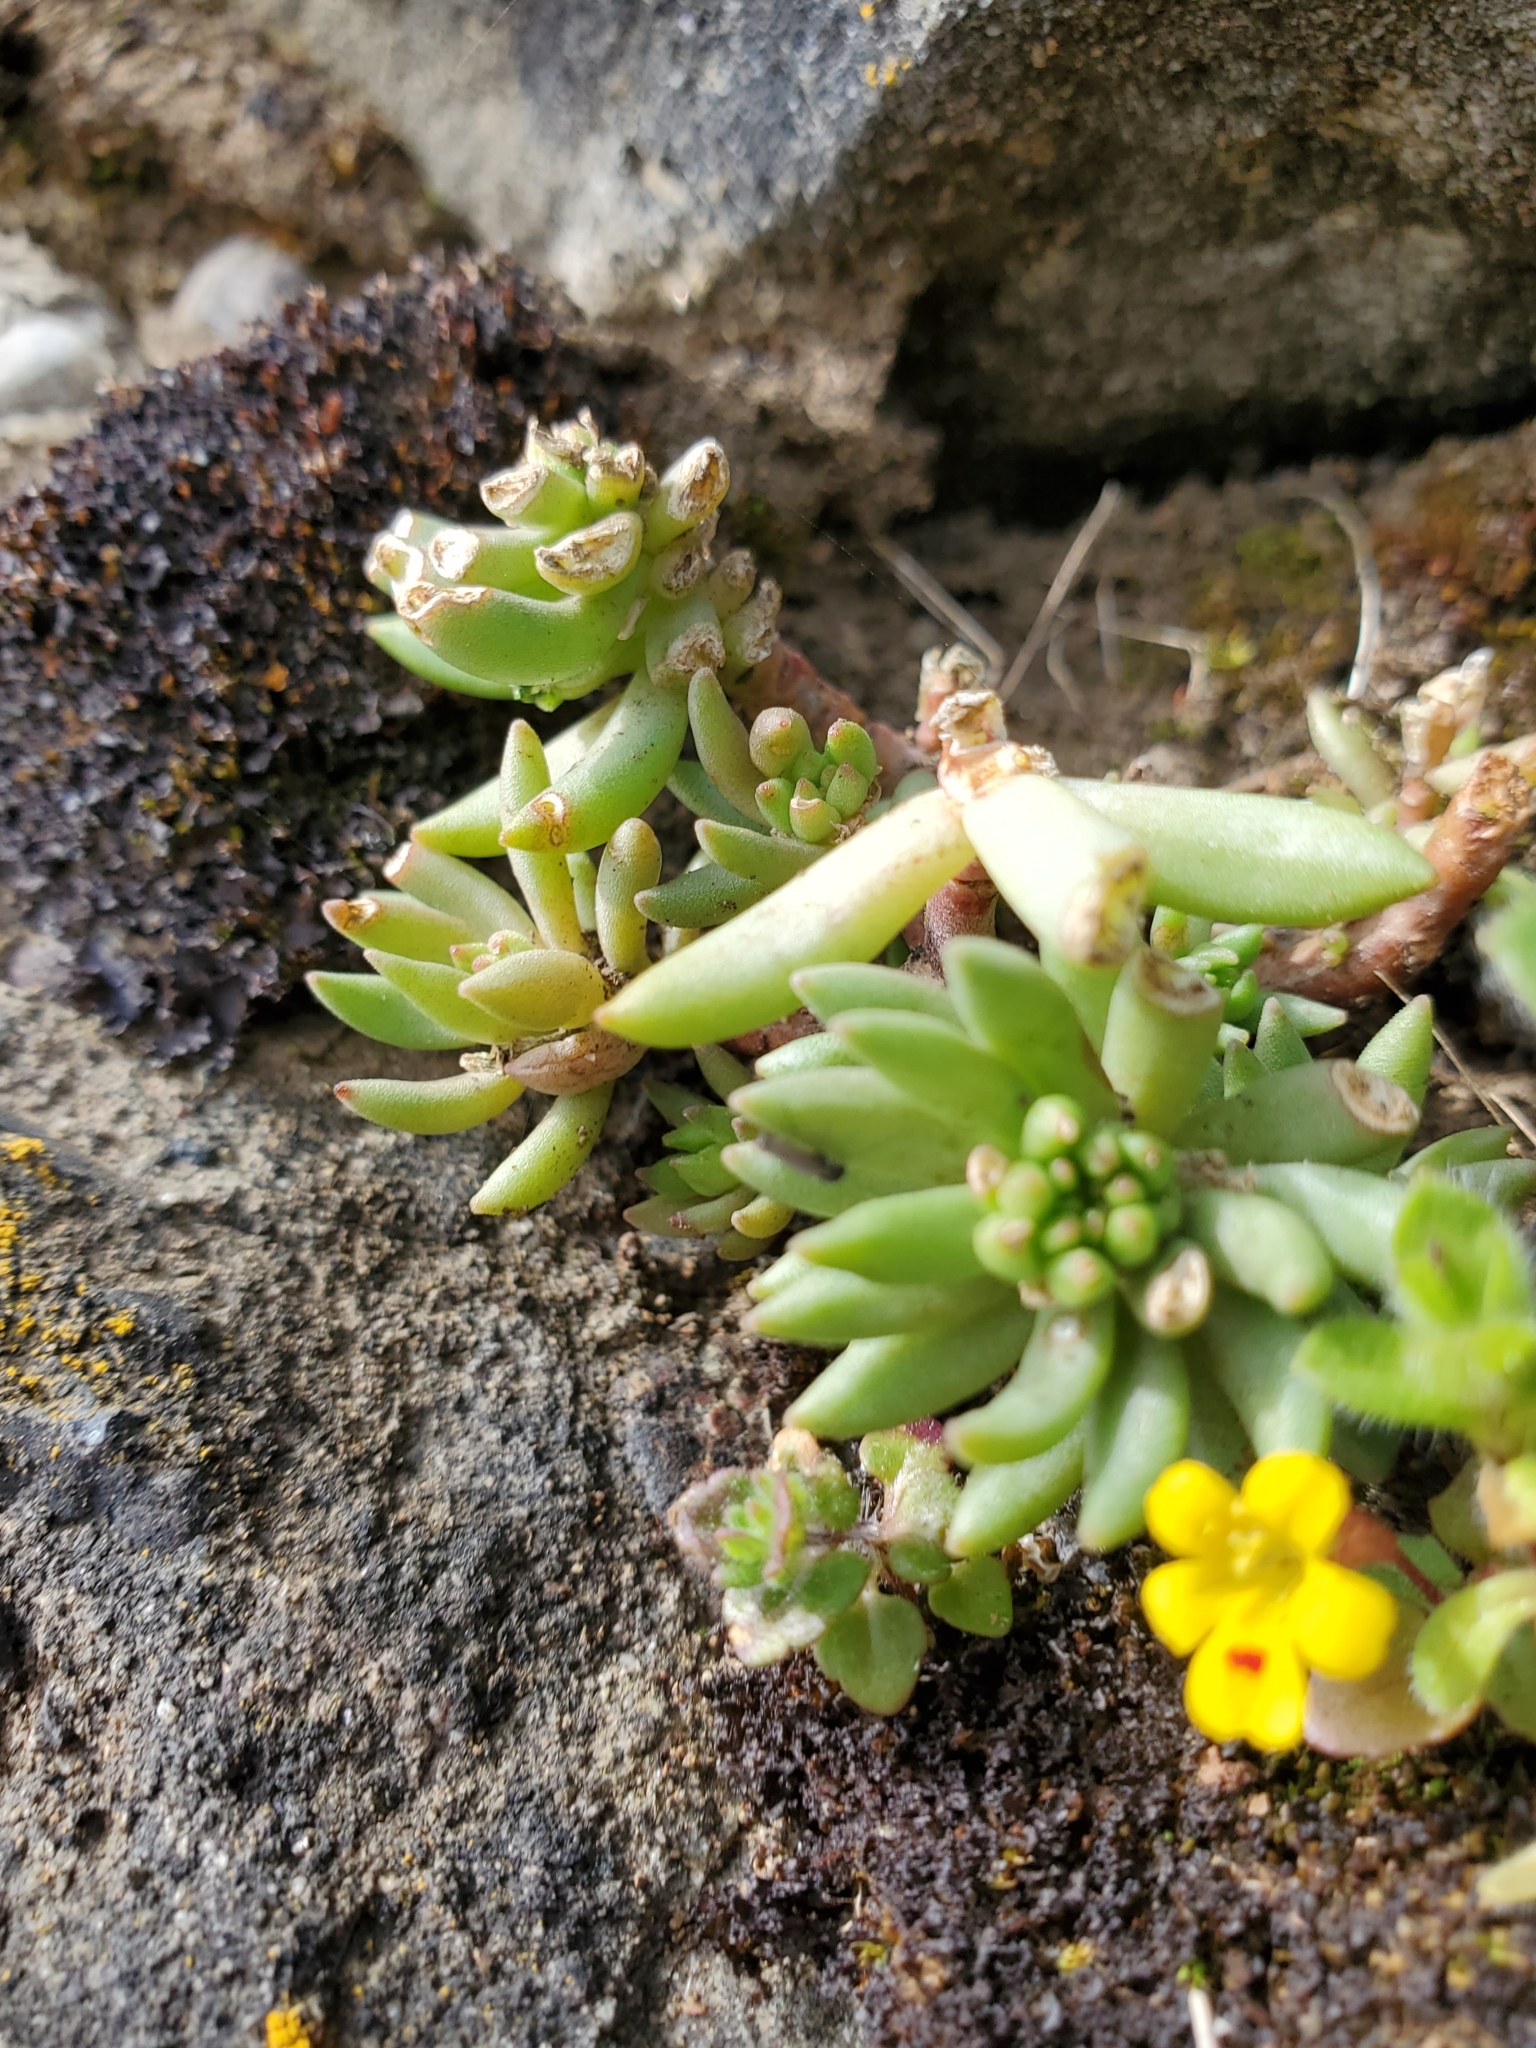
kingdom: Plantae
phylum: Tracheophyta
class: Magnoliopsida
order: Saxifragales
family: Crassulaceae
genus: Sedum
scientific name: Sedum lanceolatum
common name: Common stonecrop
